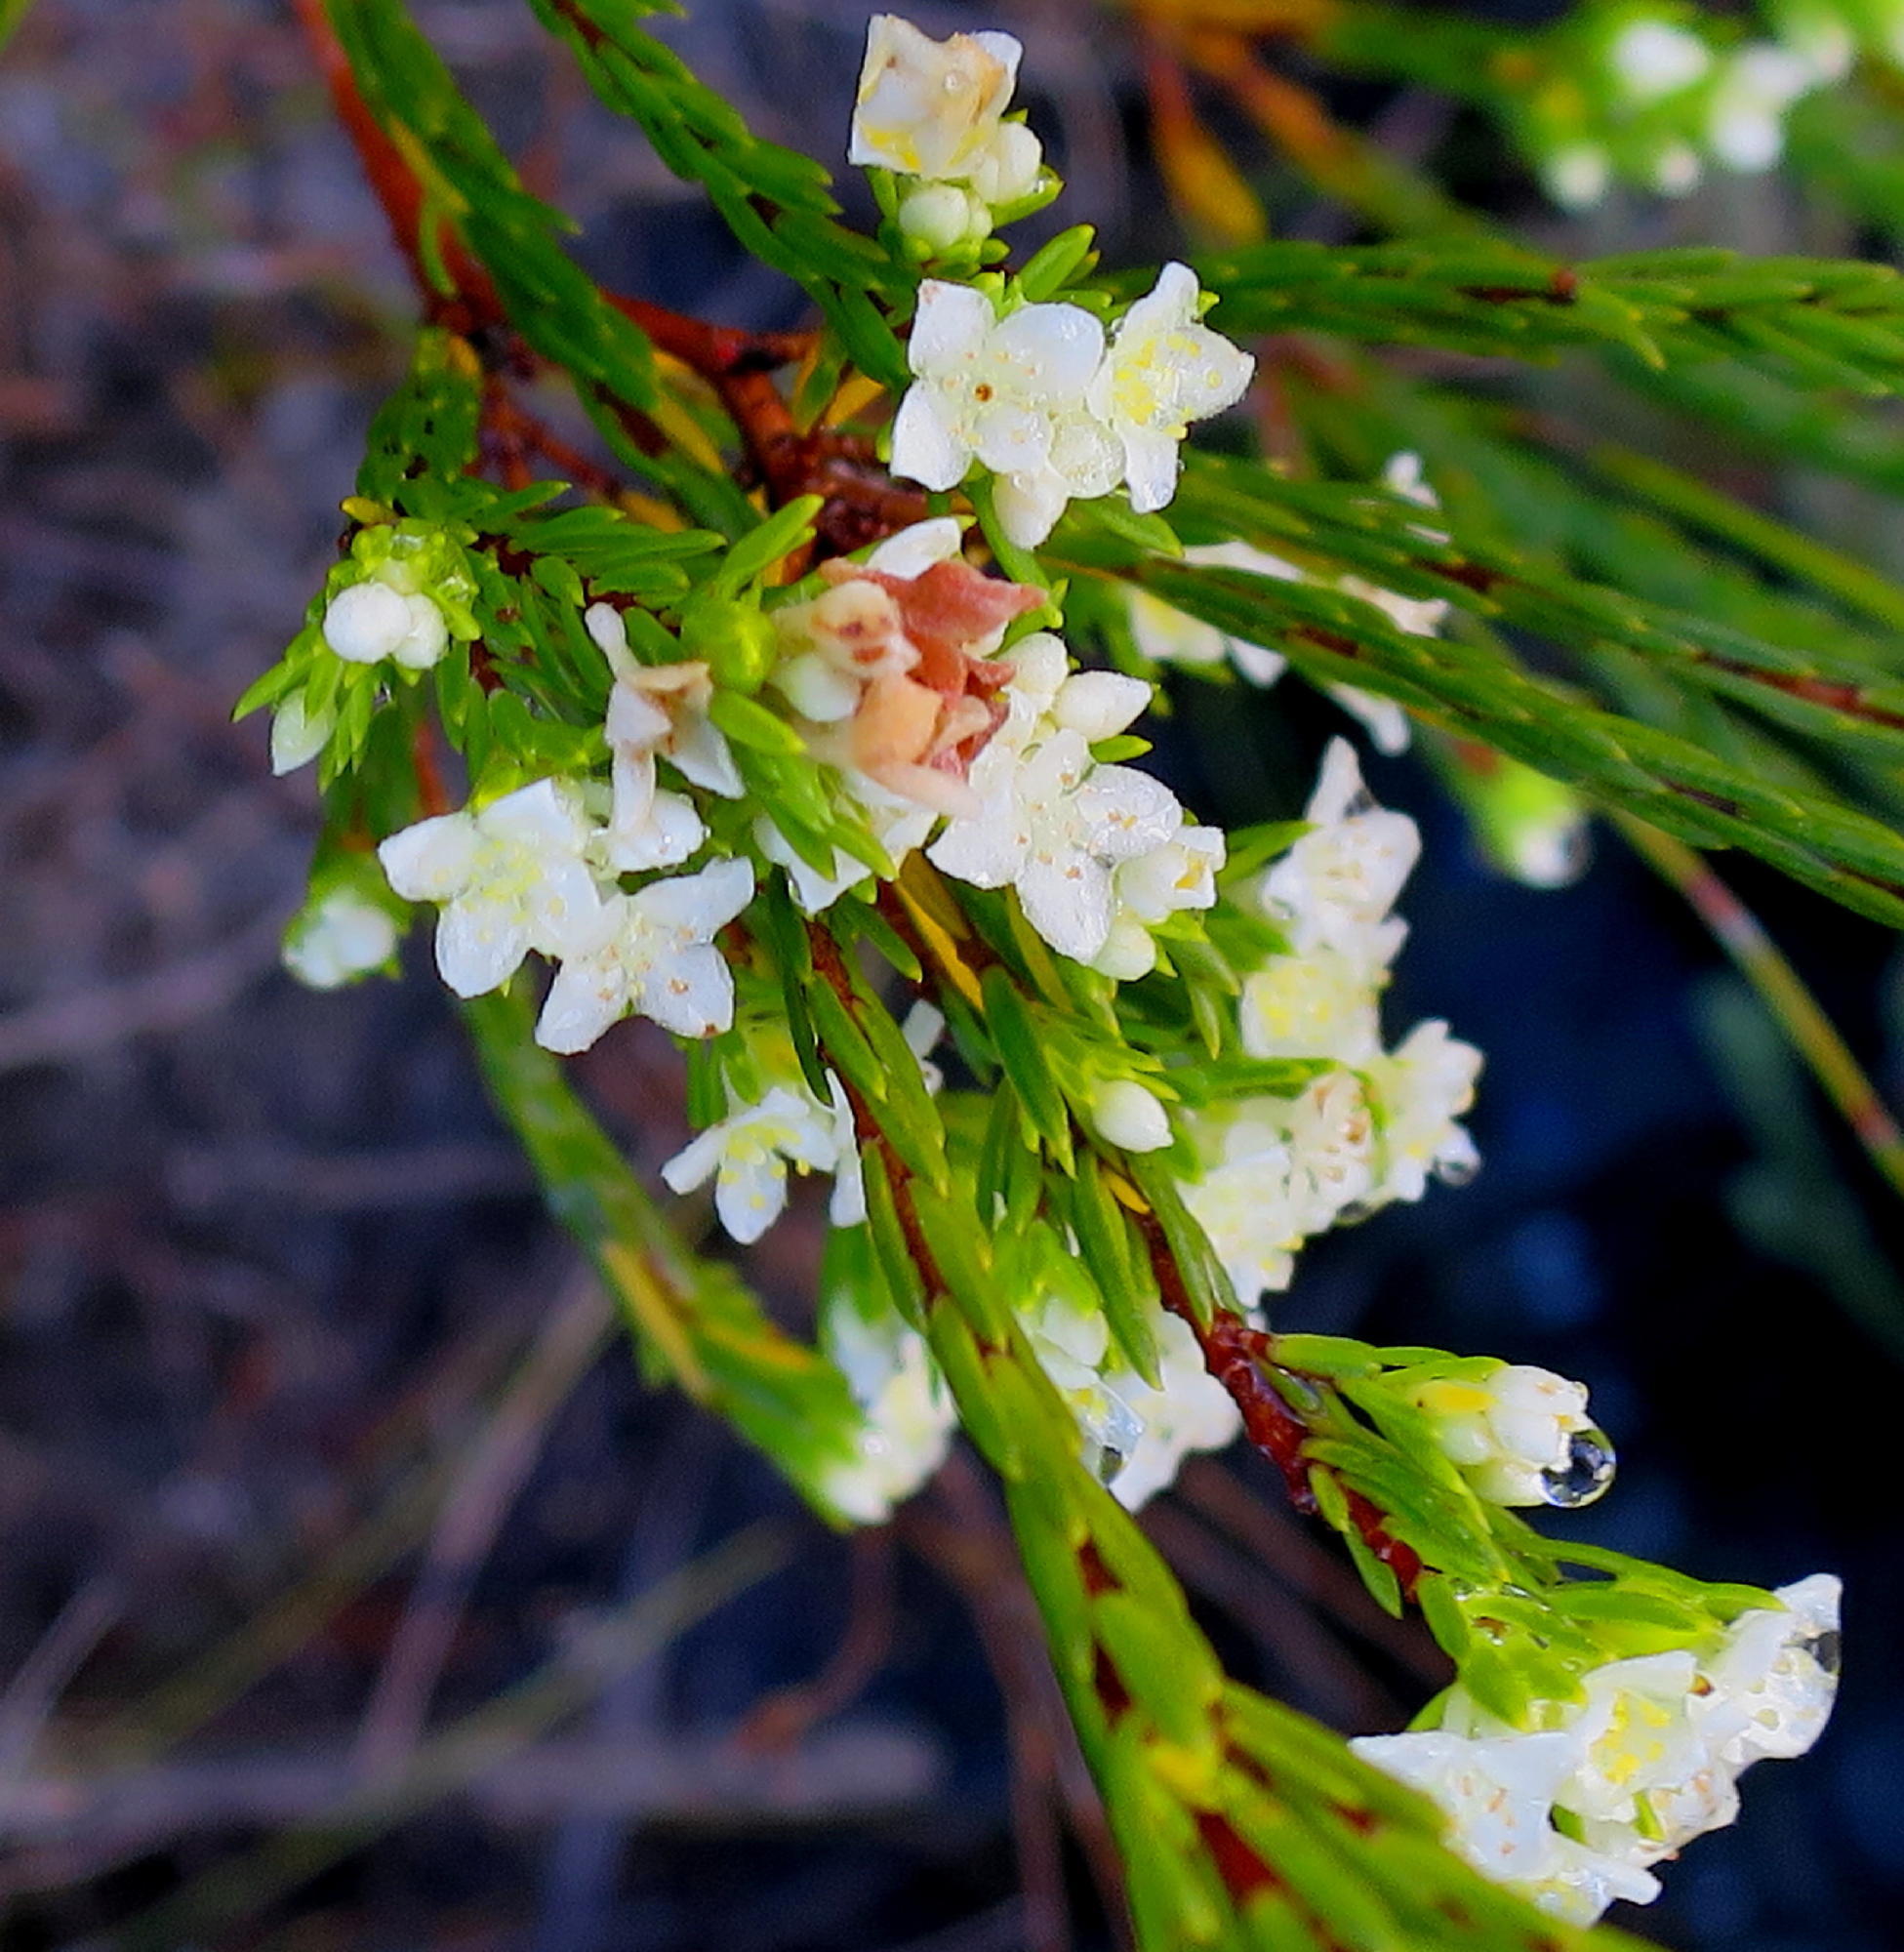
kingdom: Plantae
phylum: Tracheophyta
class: Magnoliopsida
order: Malvales
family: Thymelaeaceae
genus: Lachnaea
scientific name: Lachnaea diosmoides
